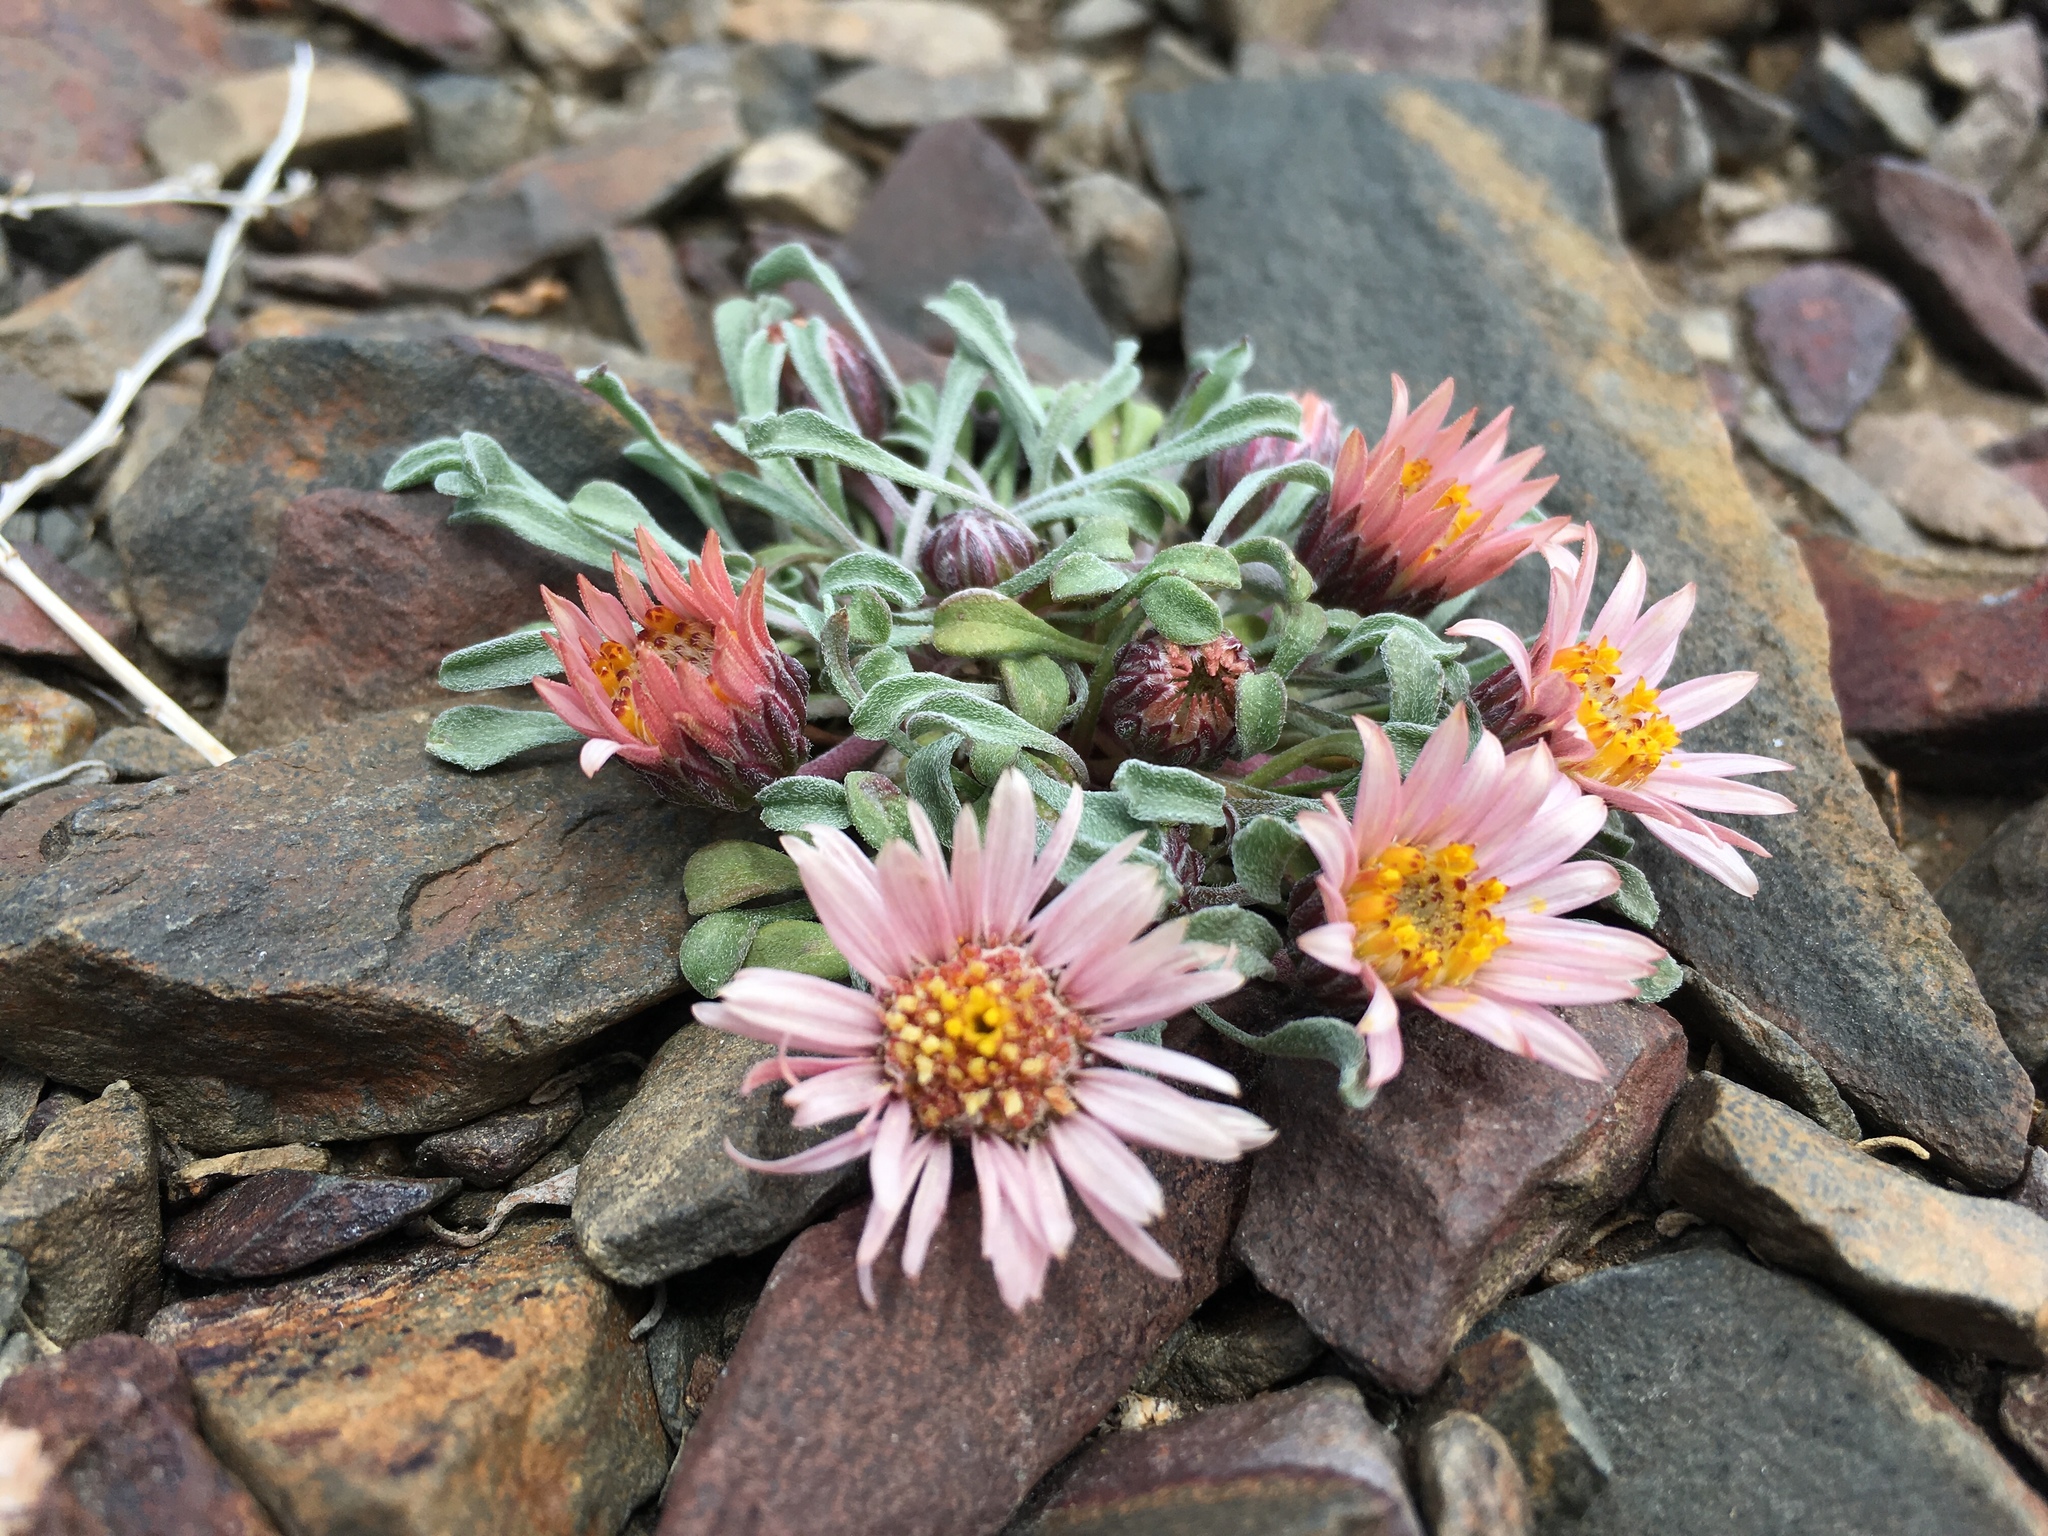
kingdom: Plantae
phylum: Tracheophyta
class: Magnoliopsida
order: Asterales
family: Asteraceae
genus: Townsendia
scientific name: Townsendia scapigera
